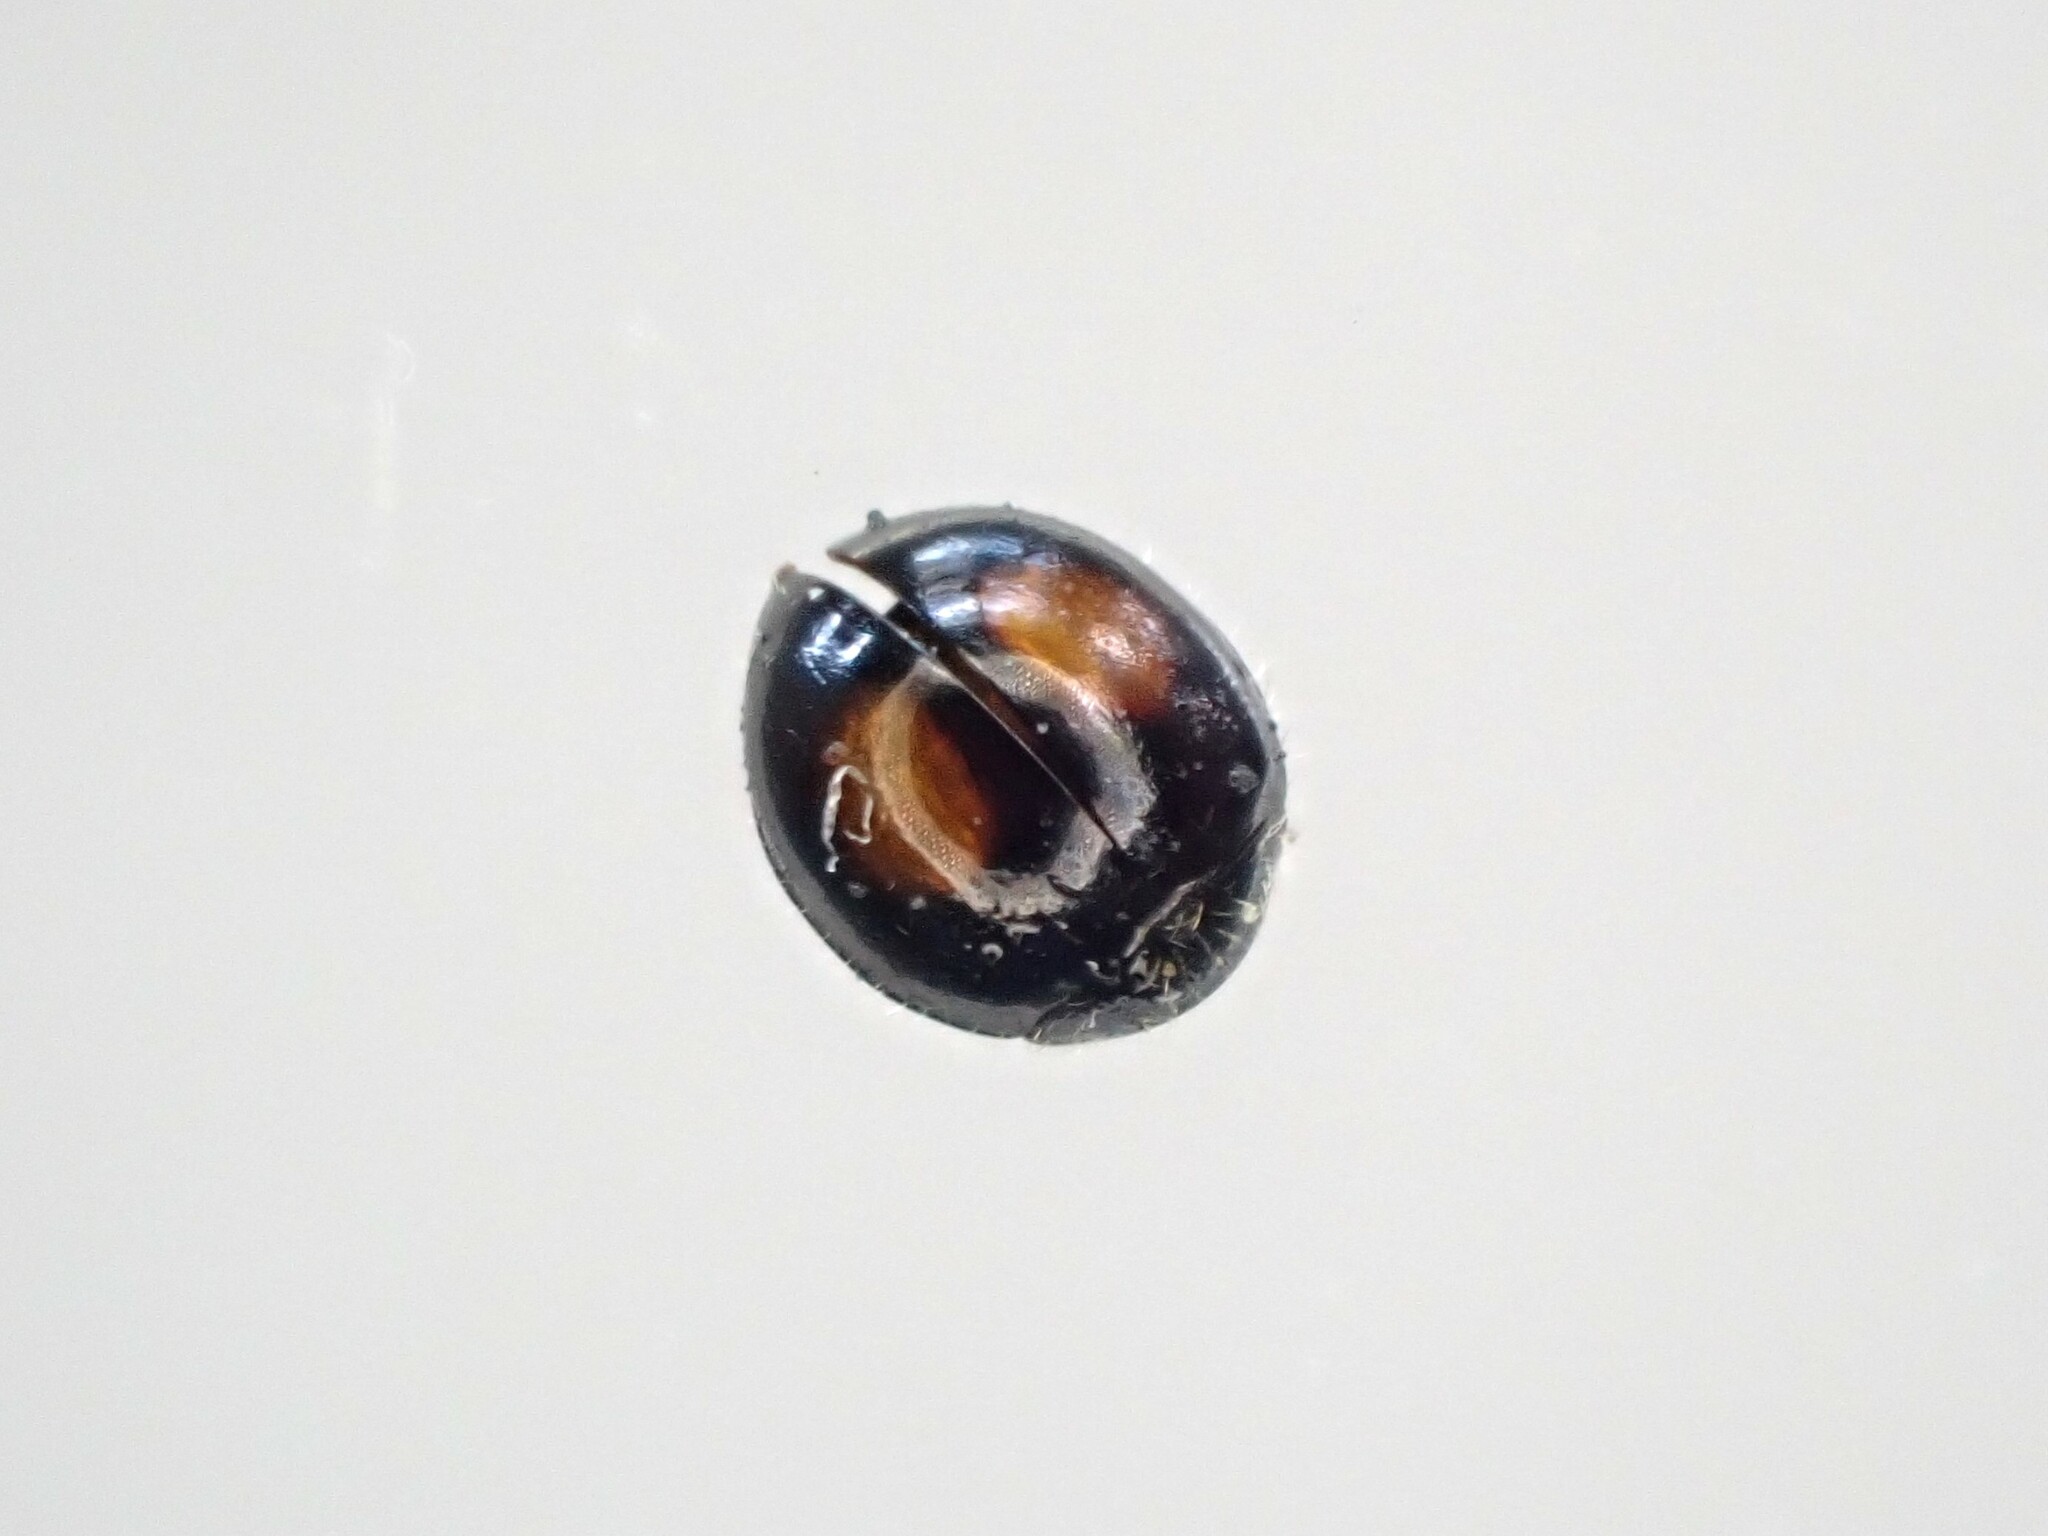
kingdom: Animalia
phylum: Arthropoda
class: Insecta
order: Coleoptera
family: Coccinellidae
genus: Serangium
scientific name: Serangium maculigerum
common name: Lady beetle
